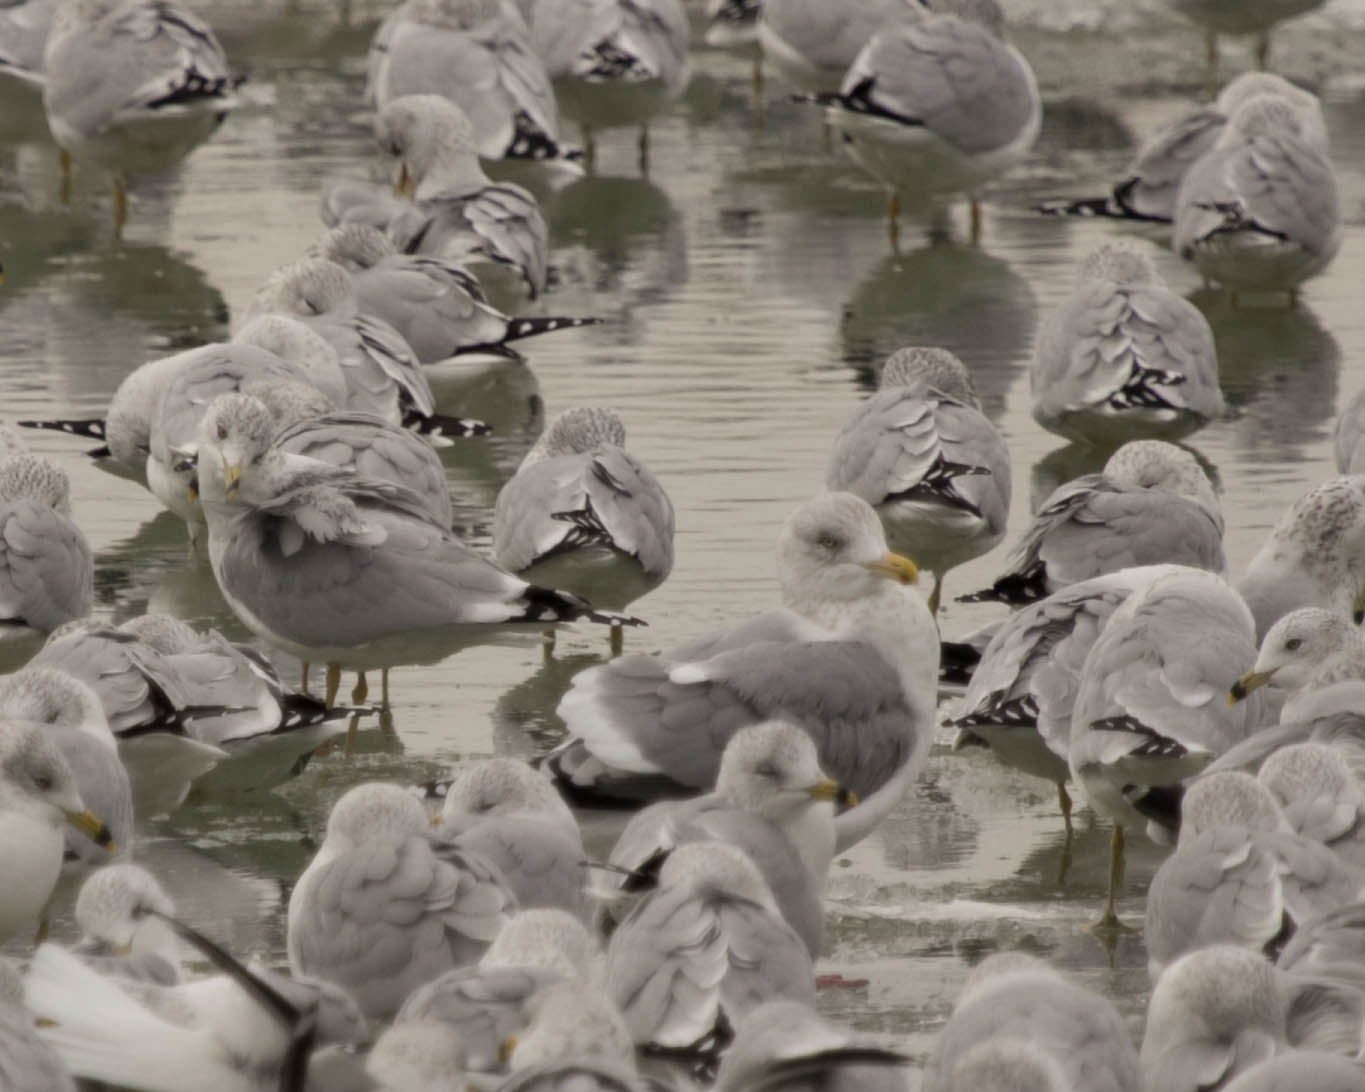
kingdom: Animalia
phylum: Chordata
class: Aves
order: Charadriiformes
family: Laridae
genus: Larus
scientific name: Larus argentatus
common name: Herring gull
